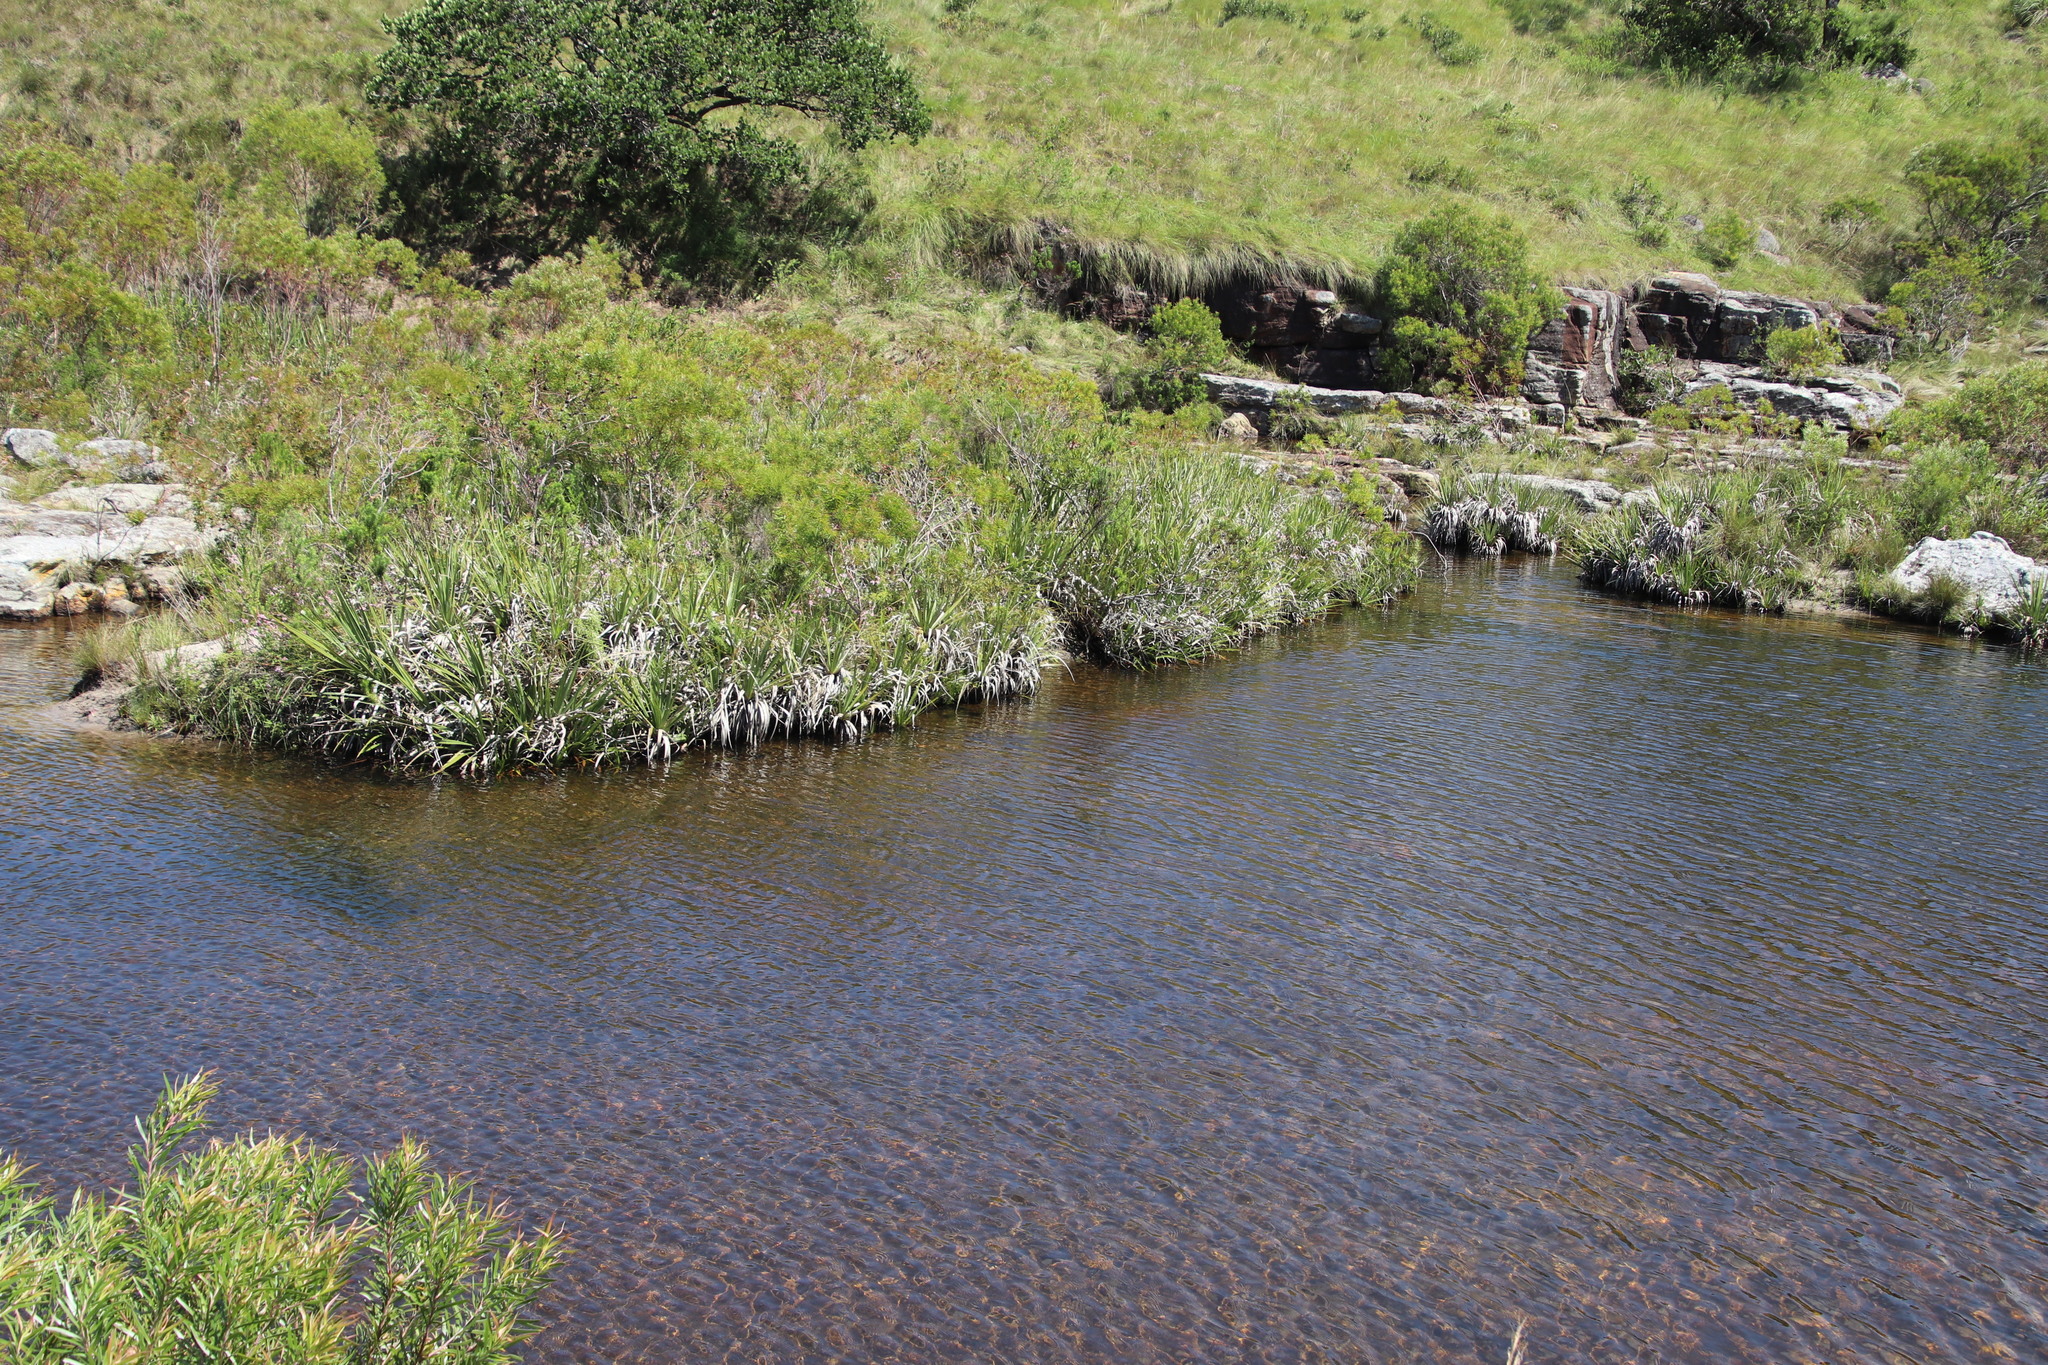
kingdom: Plantae
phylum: Tracheophyta
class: Liliopsida
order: Poales
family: Thurniaceae
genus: Prionium
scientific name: Prionium serratum
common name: Palmiet
